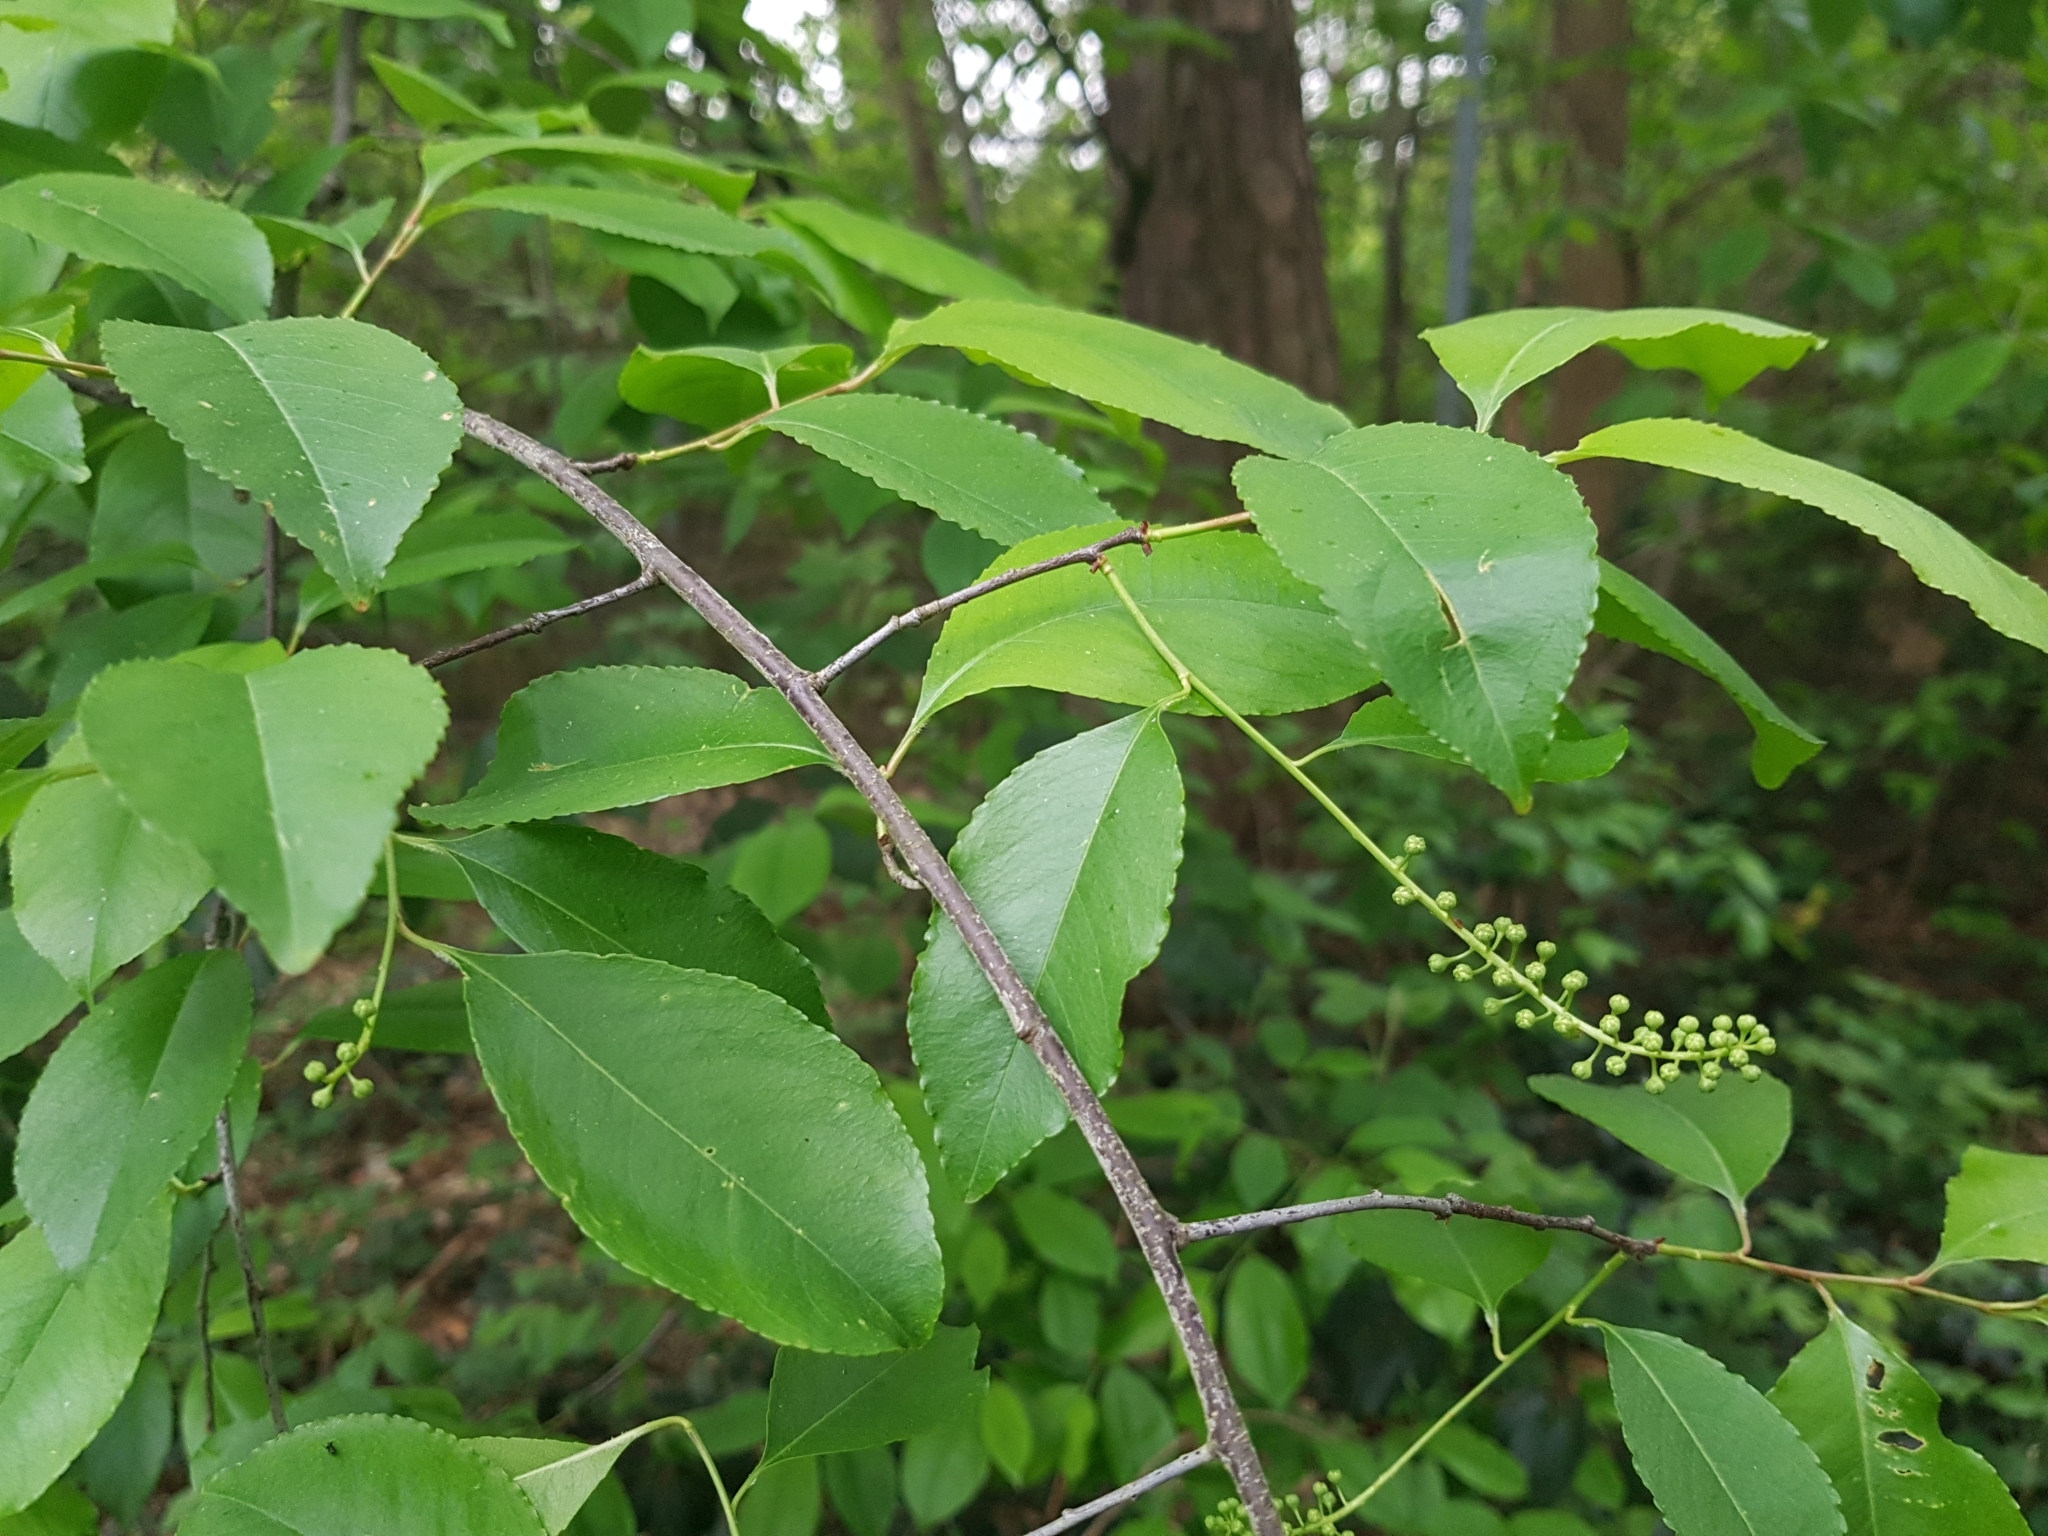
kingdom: Plantae
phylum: Tracheophyta
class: Magnoliopsida
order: Rosales
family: Rosaceae
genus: Prunus
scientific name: Prunus serotina
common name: Black cherry
